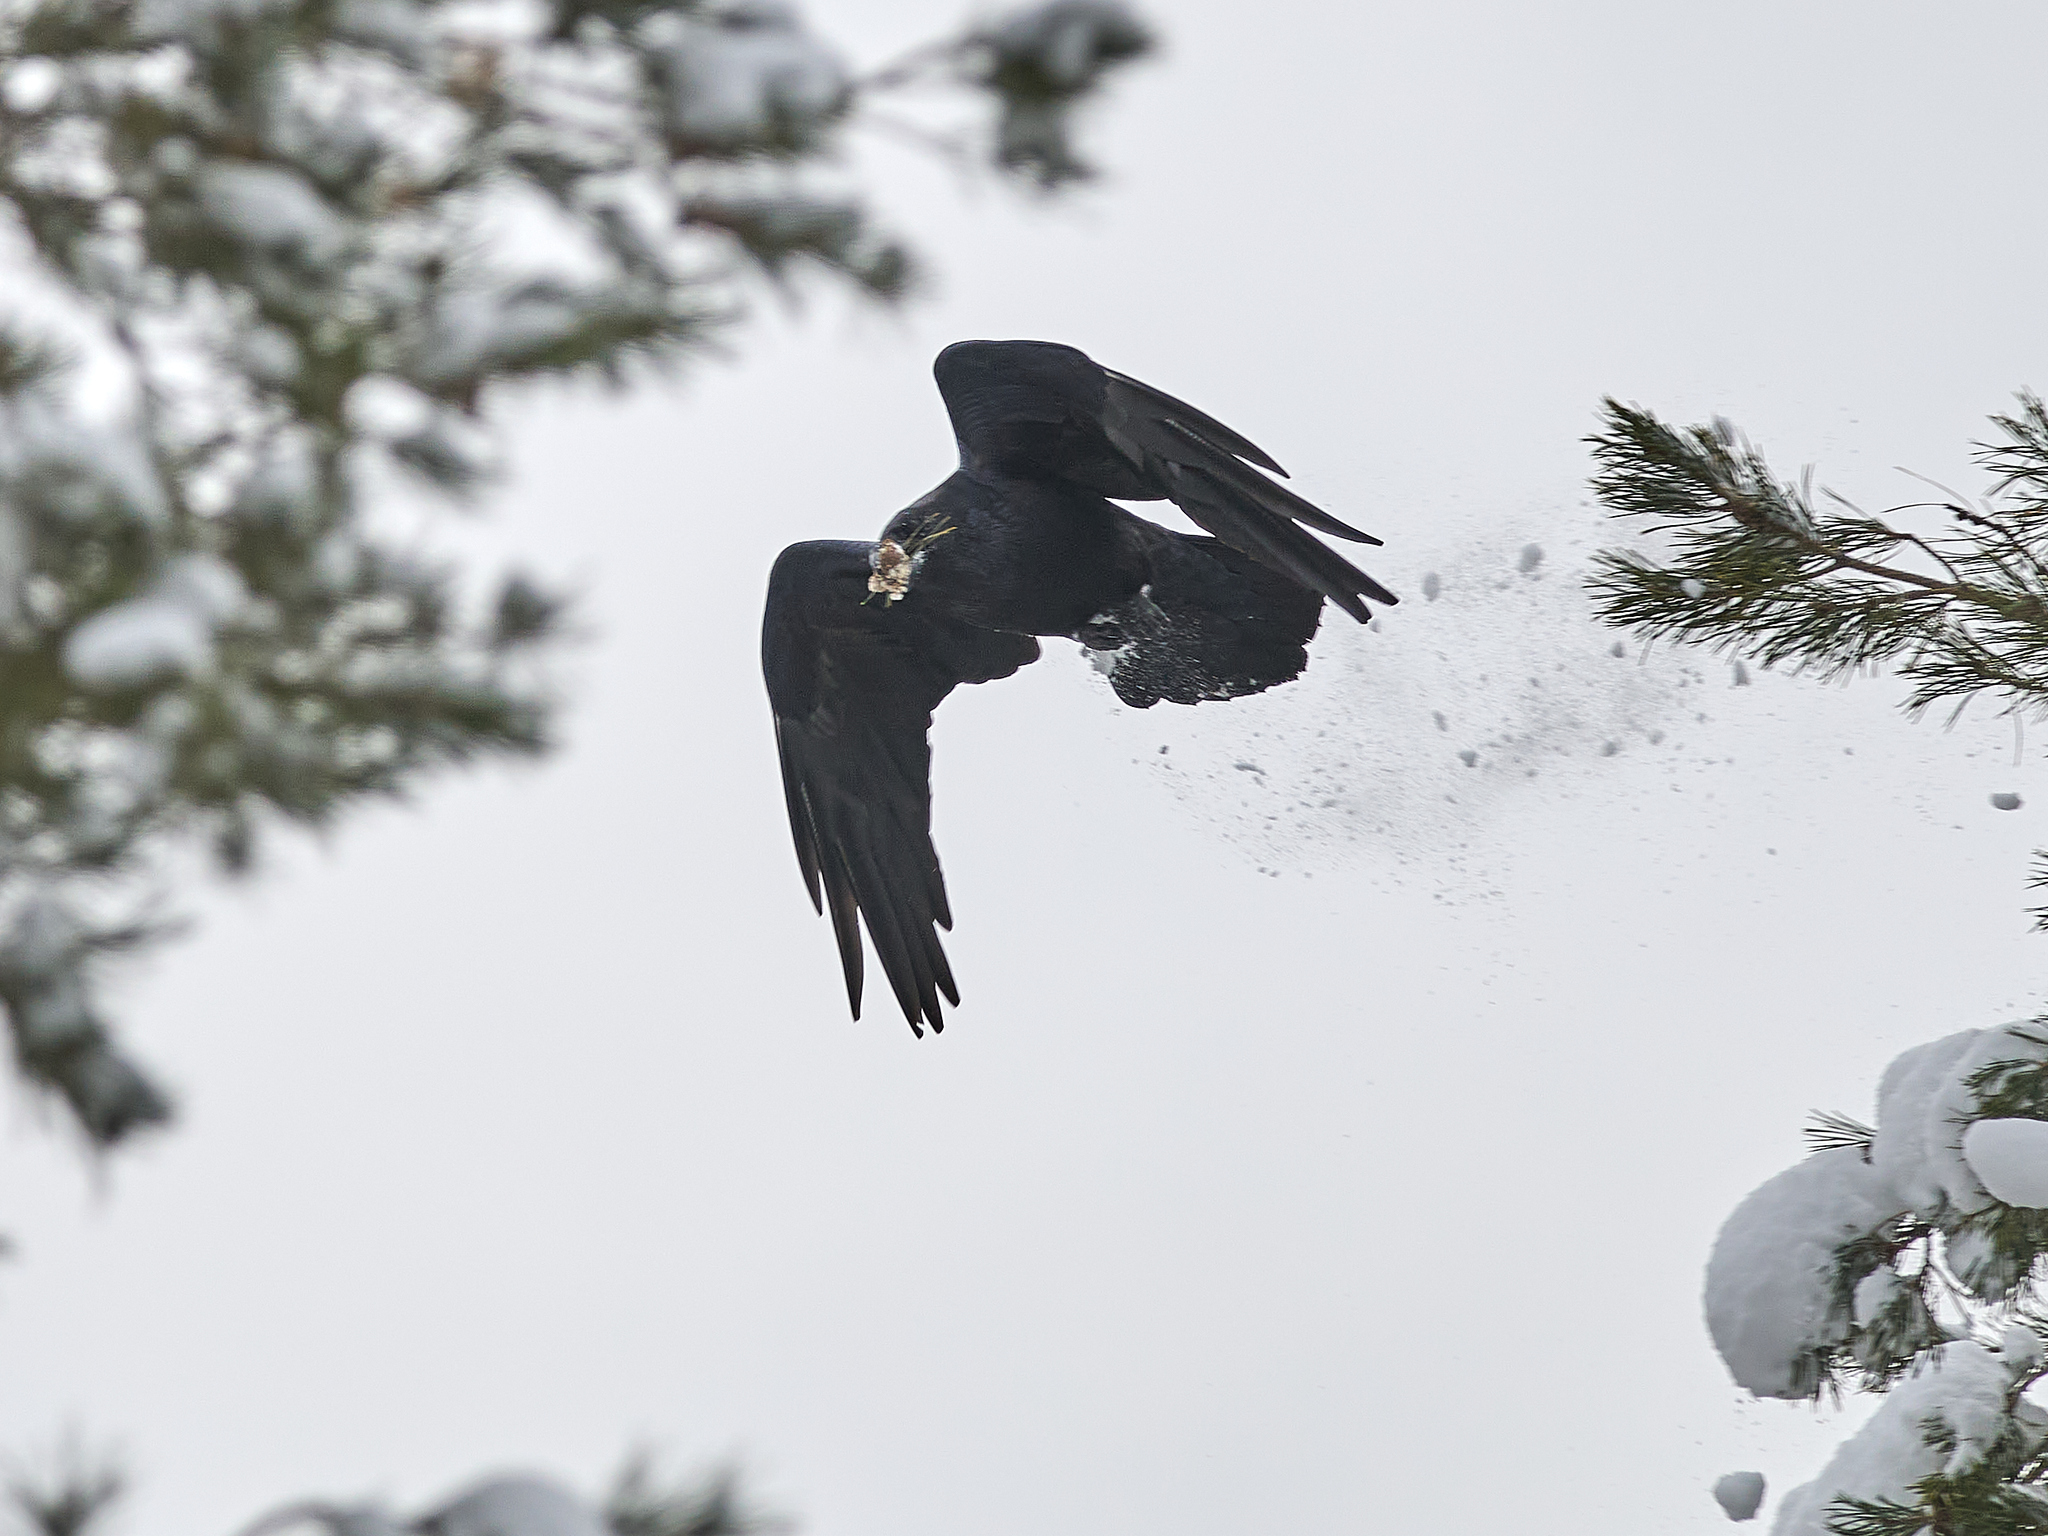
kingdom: Animalia
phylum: Chordata
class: Aves
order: Passeriformes
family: Corvidae
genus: Corvus
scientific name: Corvus corax
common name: Common raven
